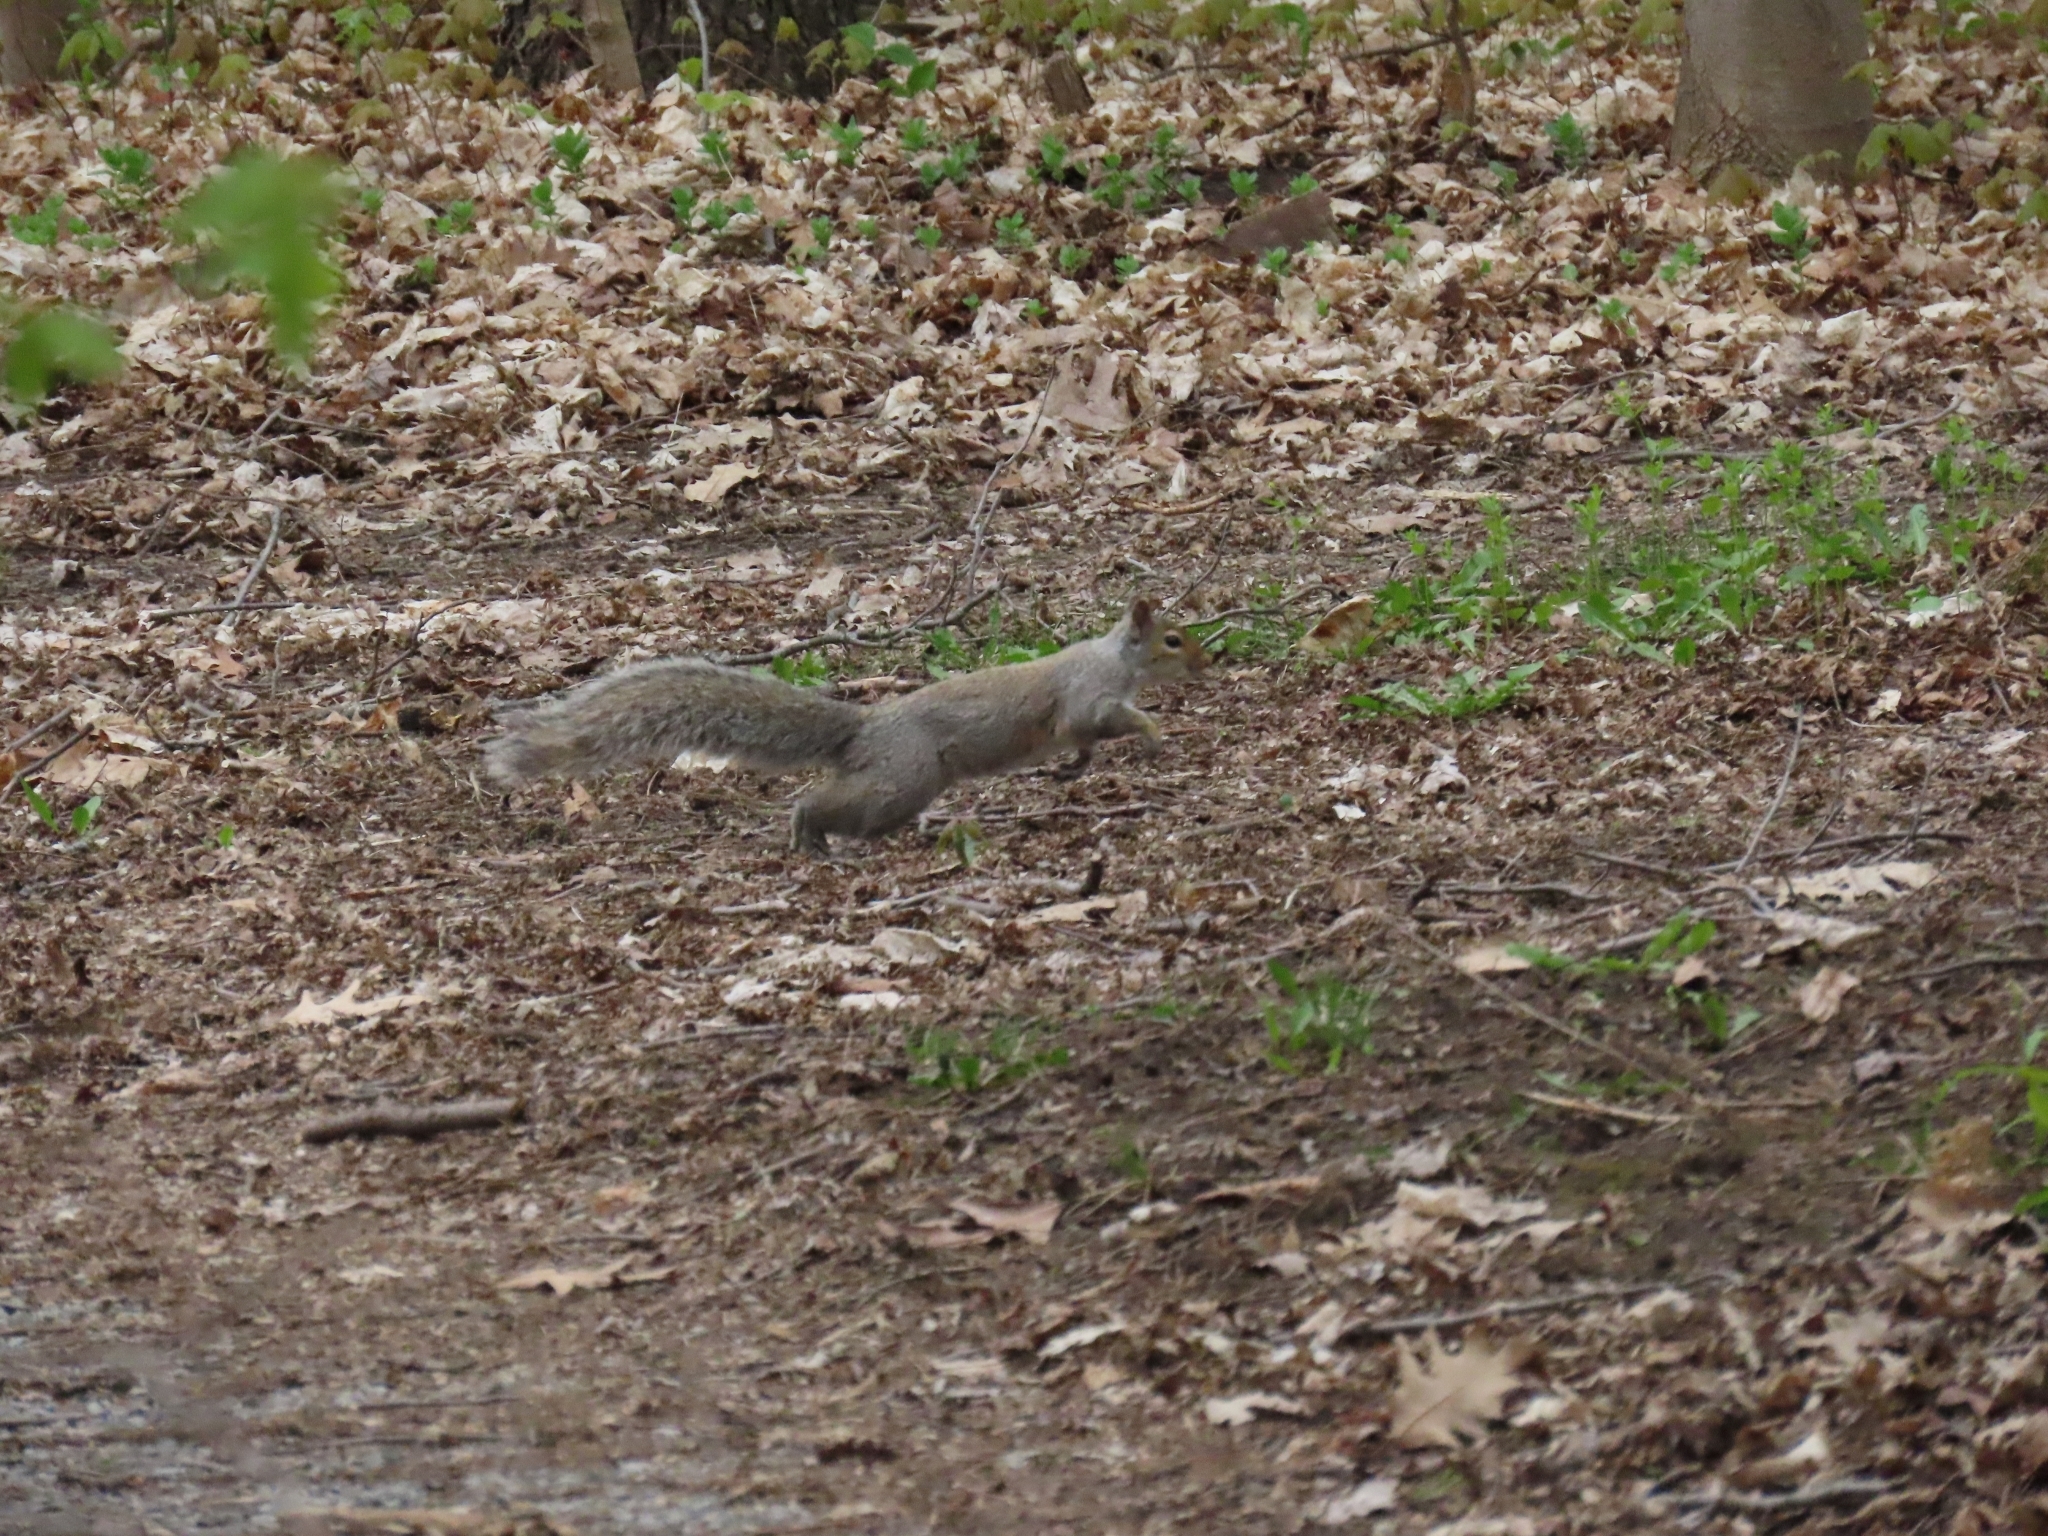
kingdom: Animalia
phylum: Chordata
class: Mammalia
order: Rodentia
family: Sciuridae
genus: Sciurus
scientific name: Sciurus carolinensis
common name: Eastern gray squirrel
